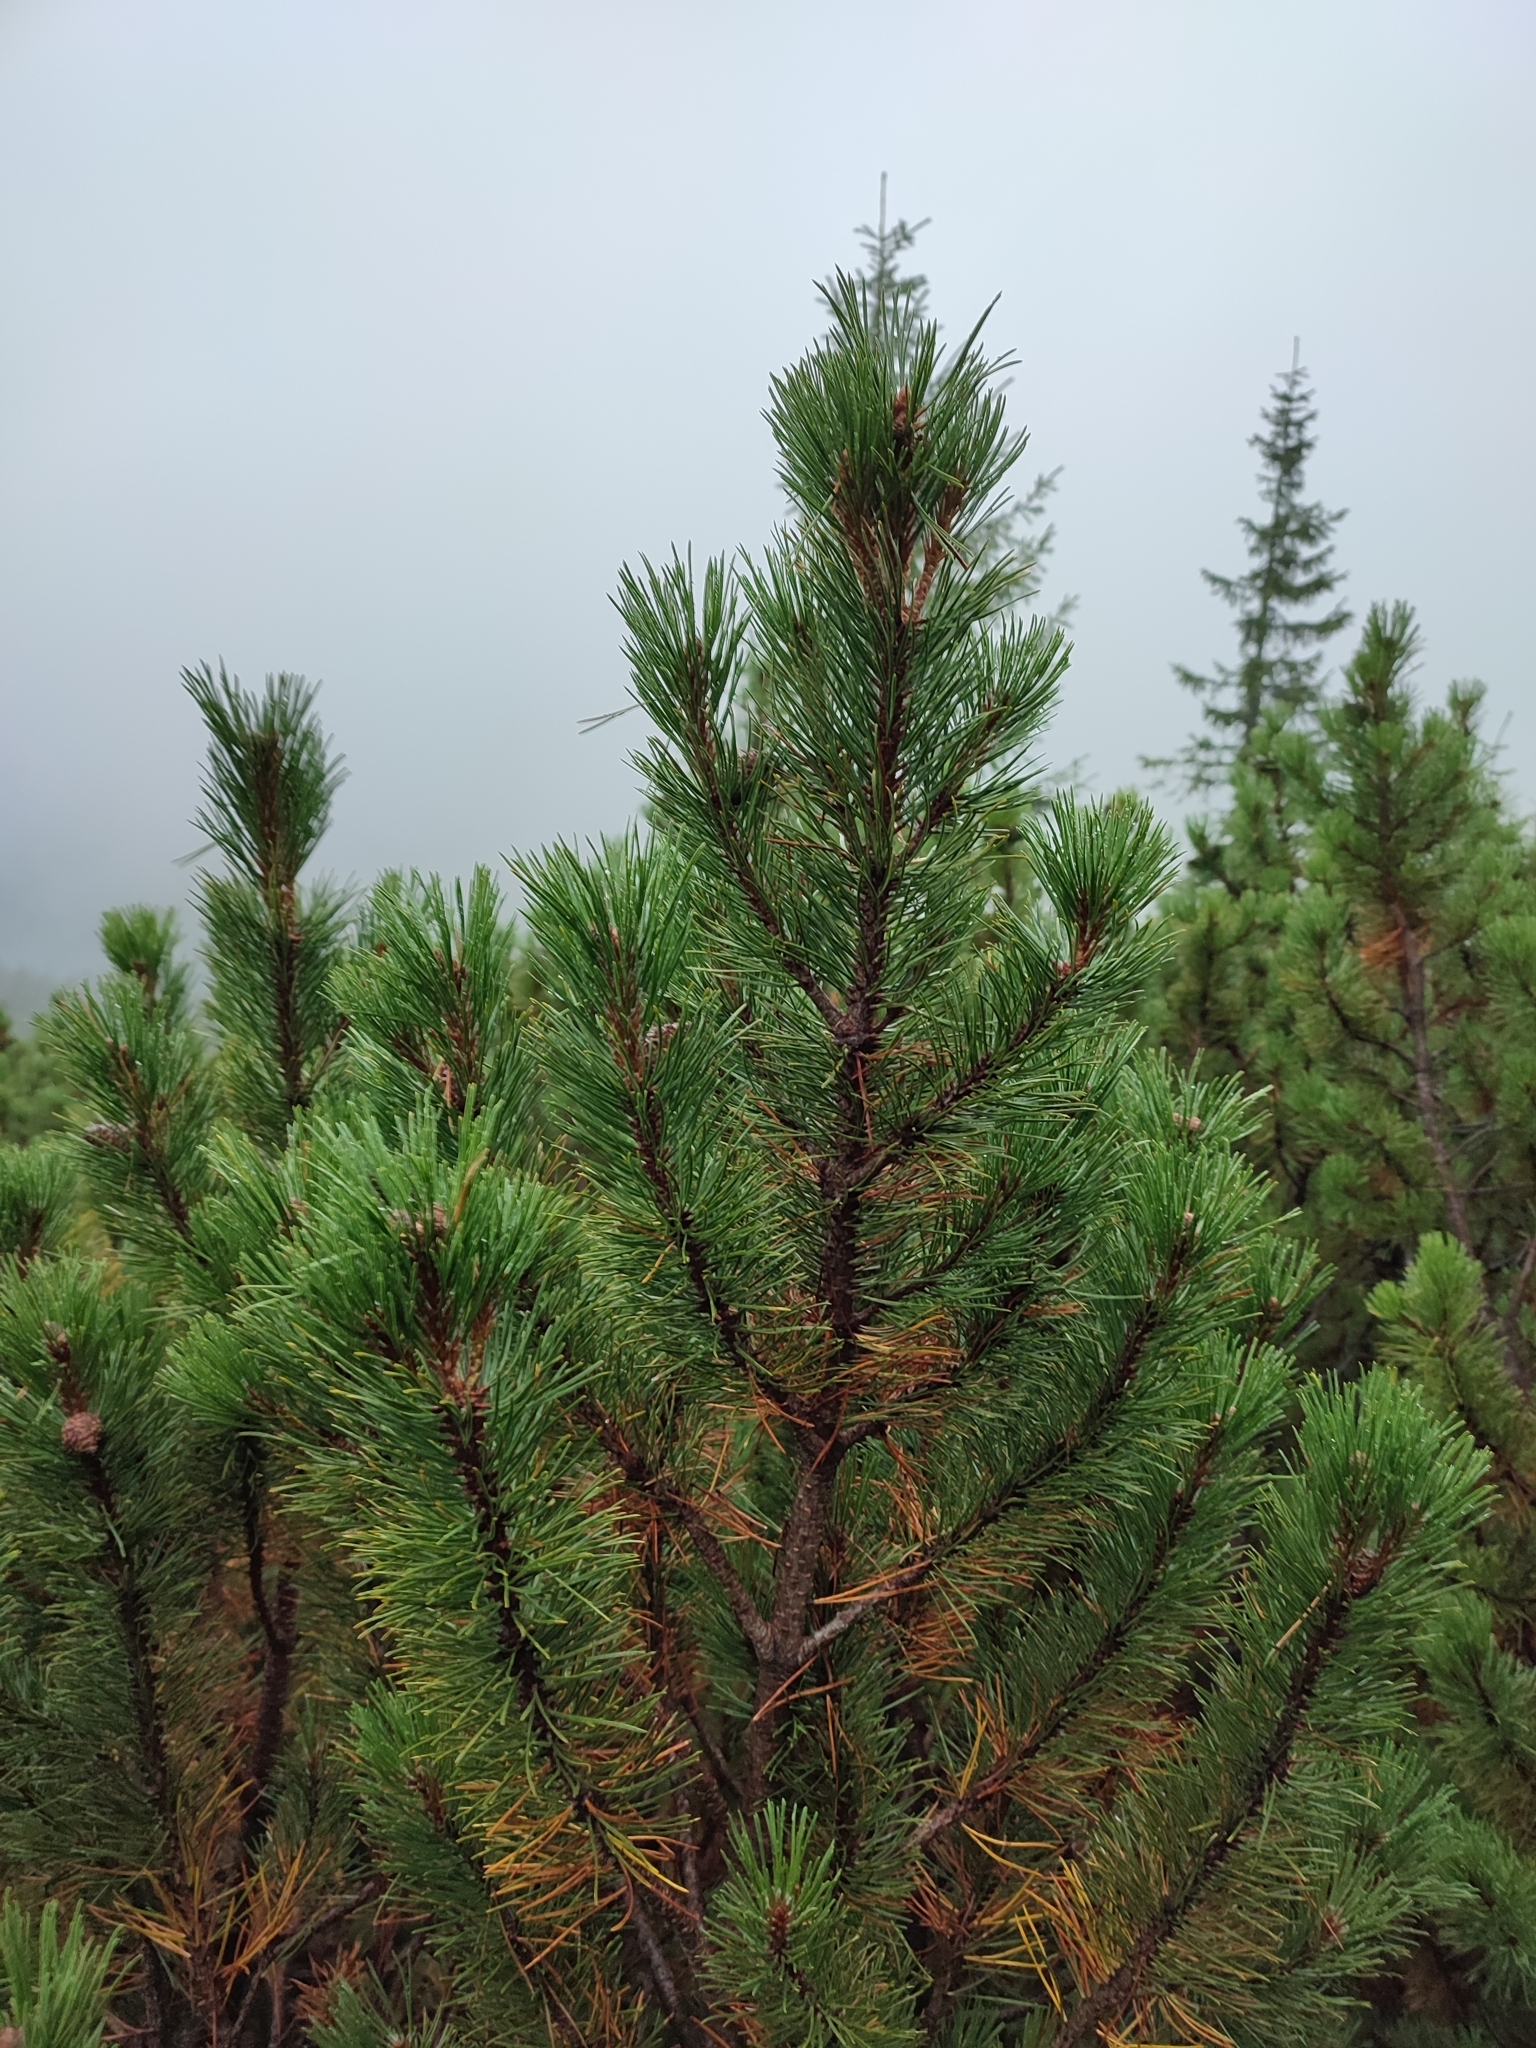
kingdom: Plantae
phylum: Tracheophyta
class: Pinopsida
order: Pinales
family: Pinaceae
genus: Pinus
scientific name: Pinus mugo
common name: Mugo pine
